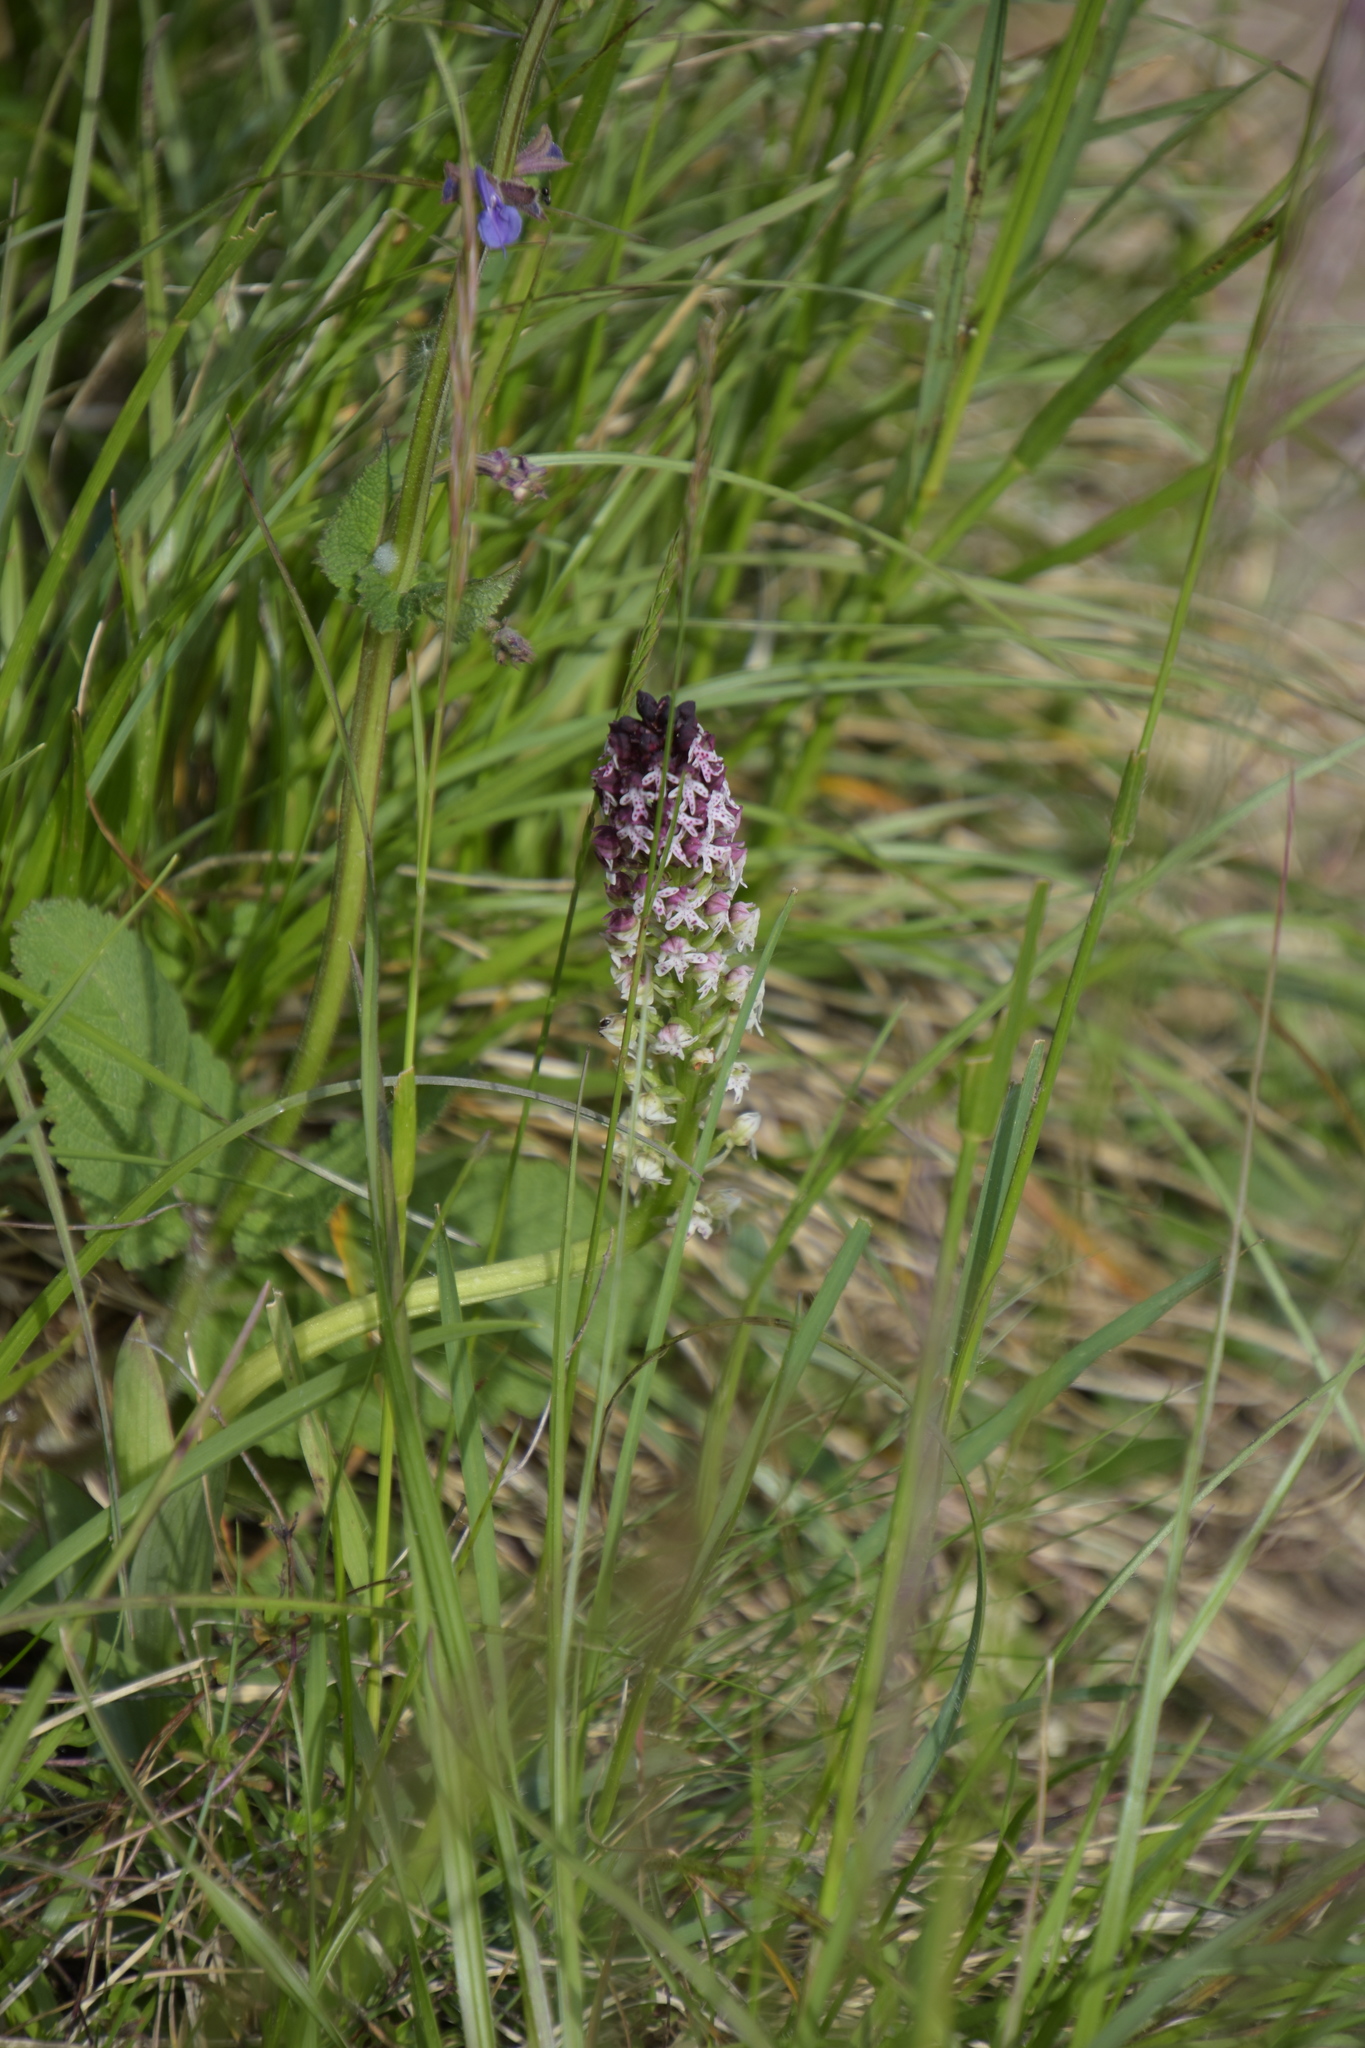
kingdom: Plantae
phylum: Tracheophyta
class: Liliopsida
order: Asparagales
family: Orchidaceae
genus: Neotinea
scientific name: Neotinea ustulata
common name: Burnt orchid
